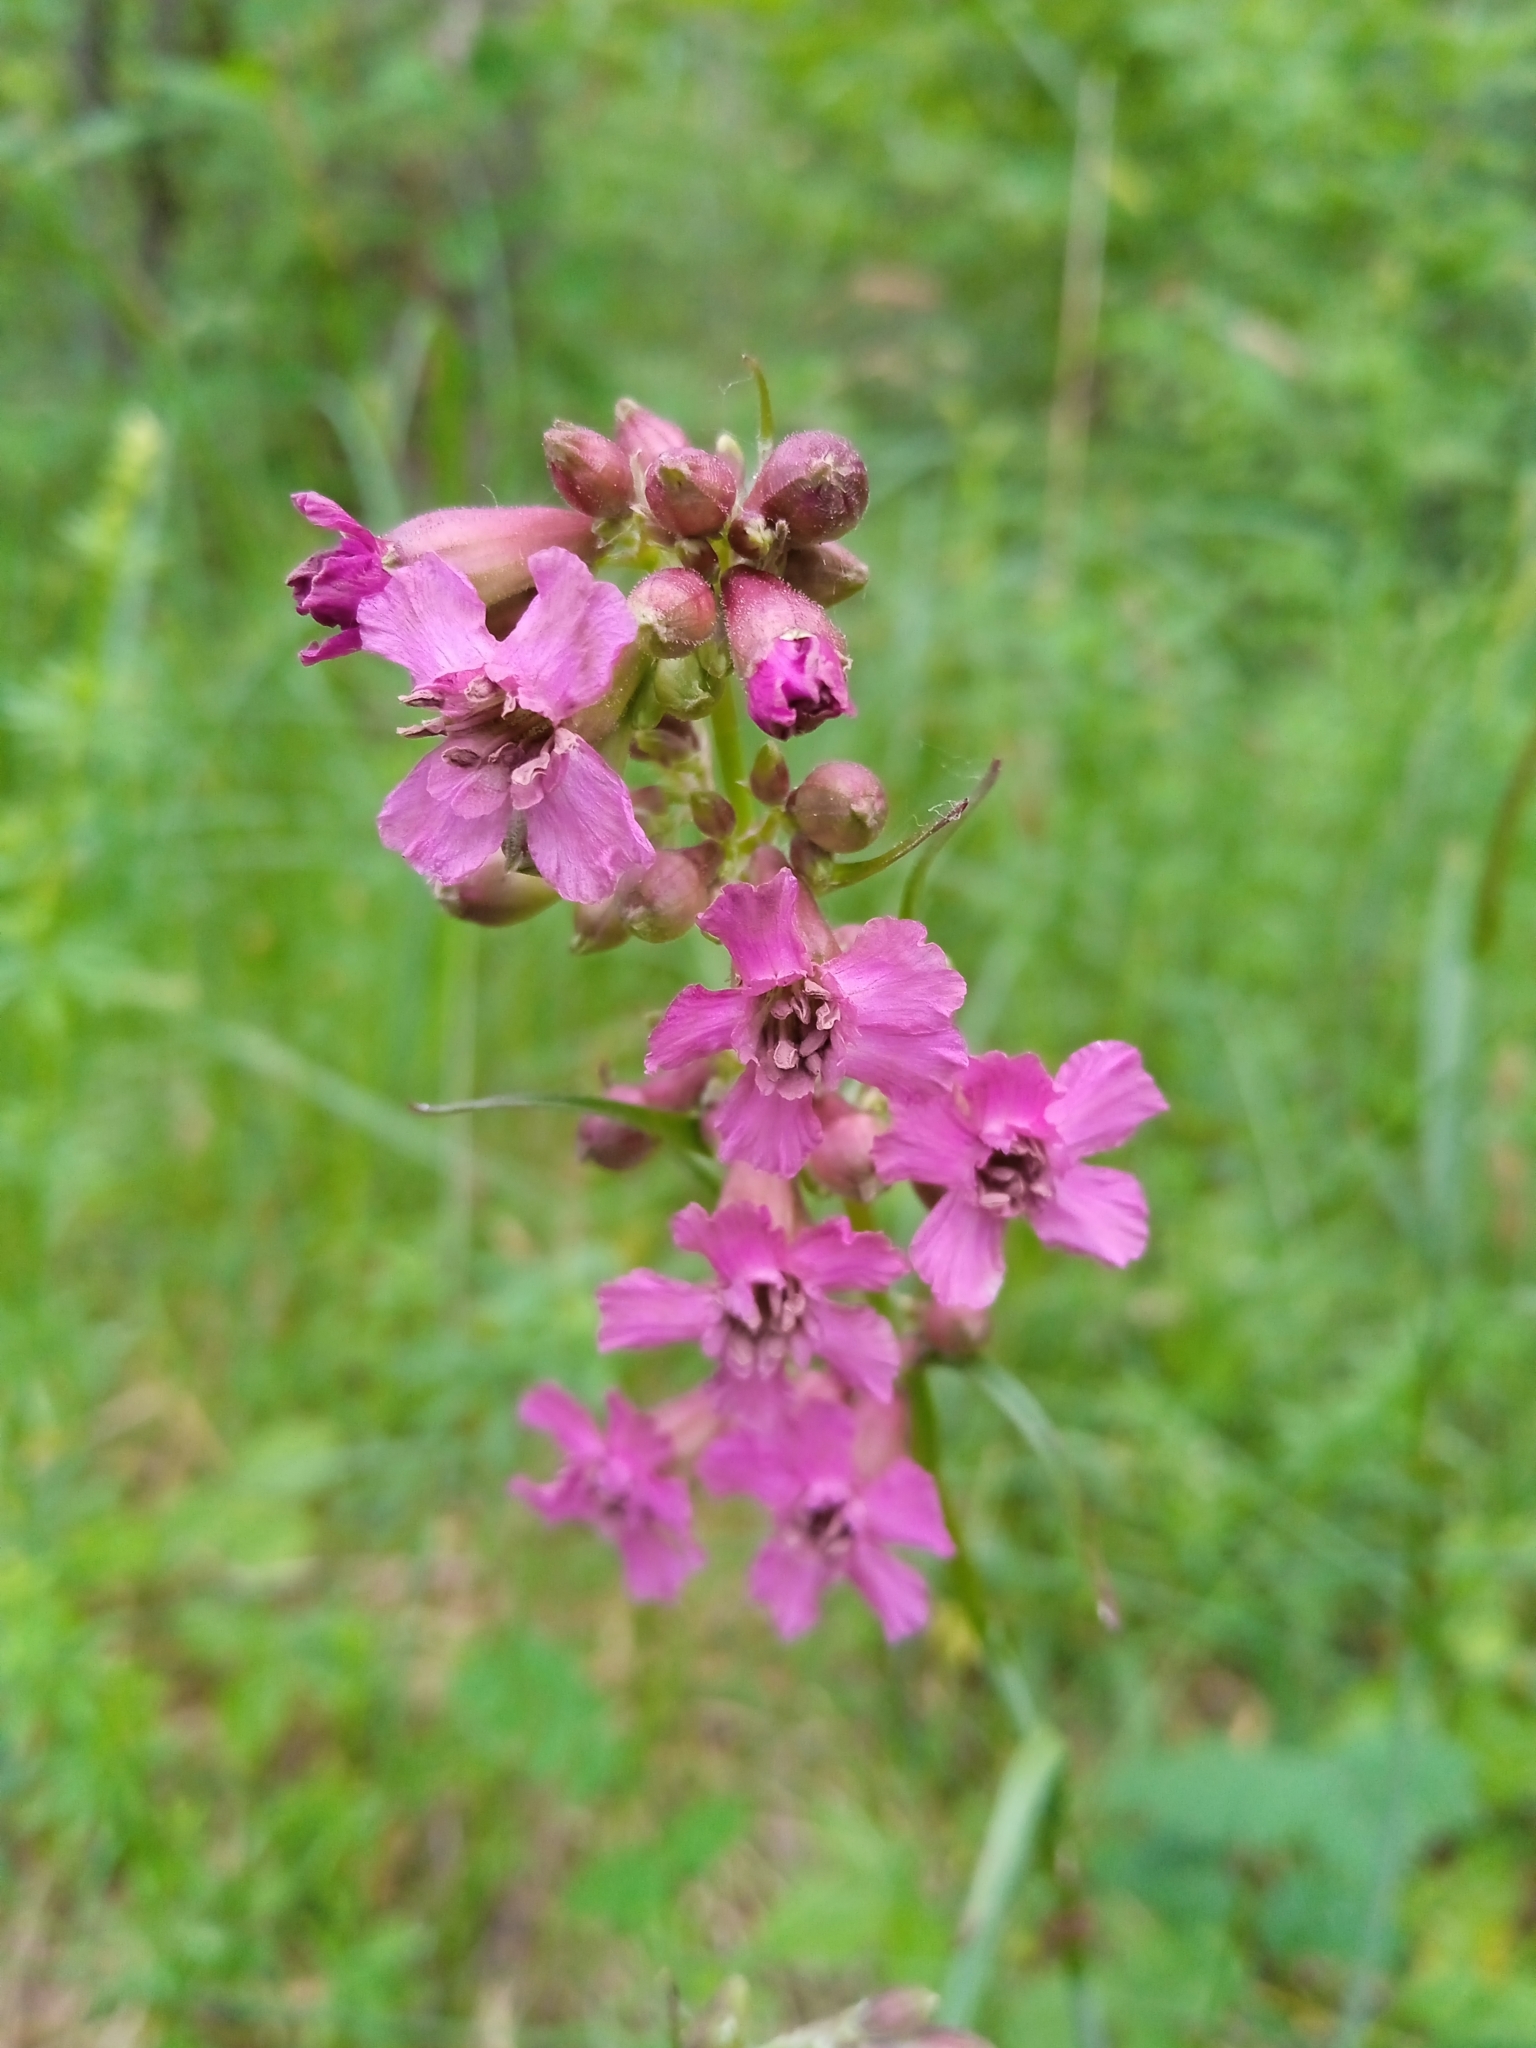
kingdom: Plantae
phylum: Tracheophyta
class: Magnoliopsida
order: Caryophyllales
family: Caryophyllaceae
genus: Viscaria
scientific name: Viscaria vulgaris
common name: Clammy campion
